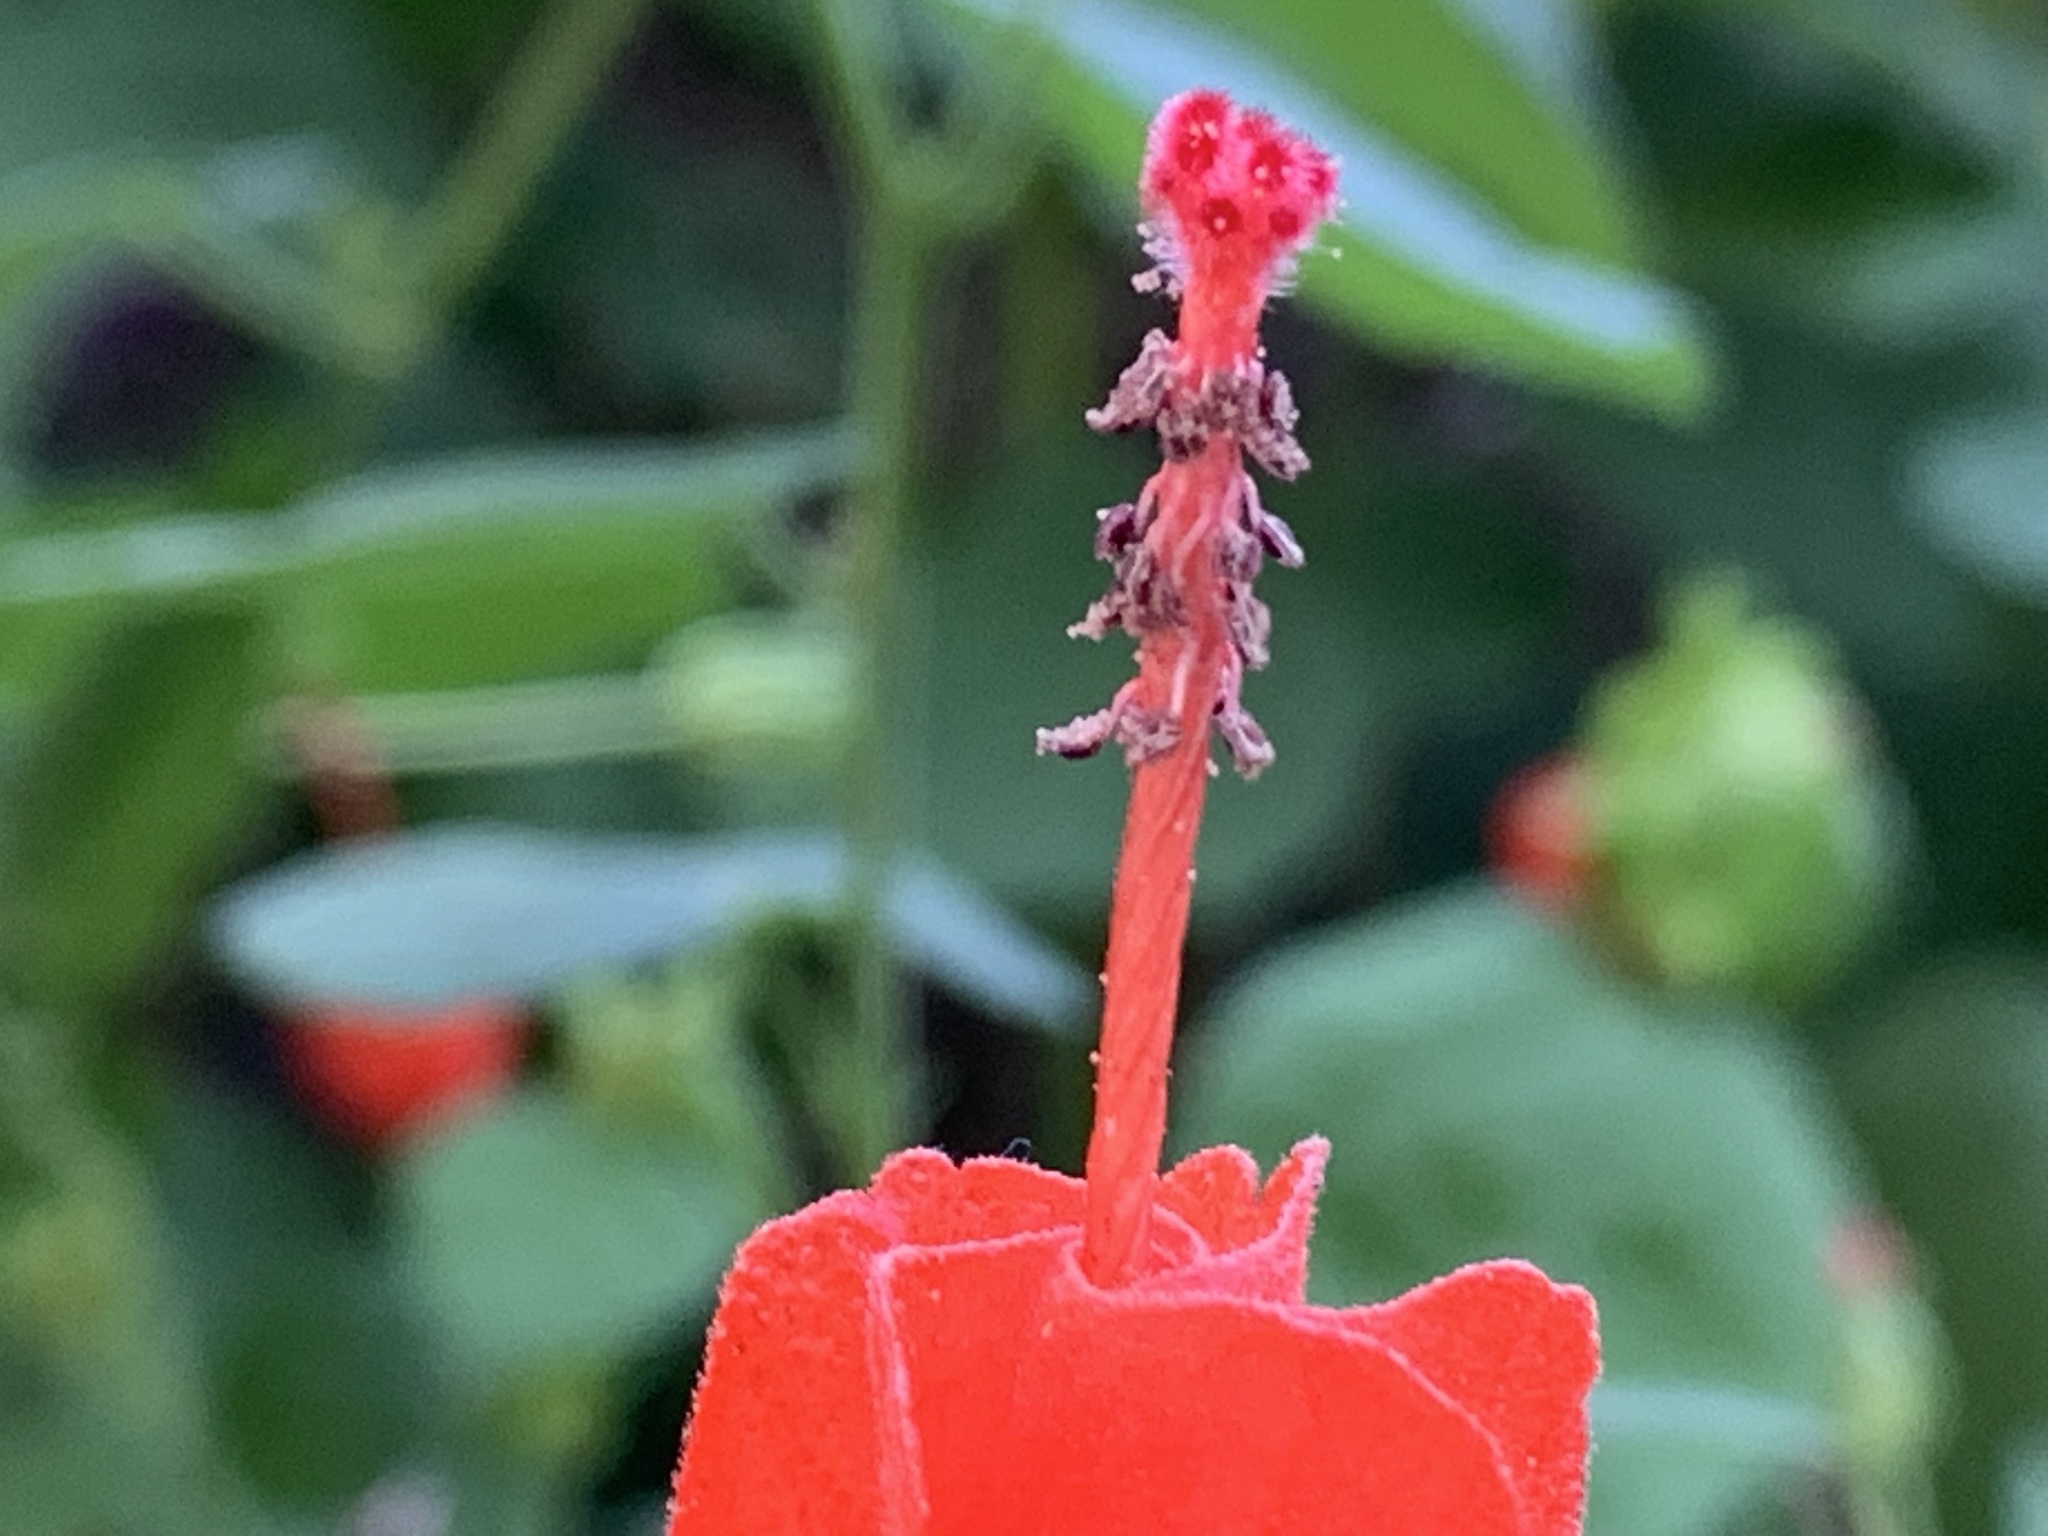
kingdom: Plantae
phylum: Tracheophyta
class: Magnoliopsida
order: Malvales
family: Malvaceae
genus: Malvaviscus
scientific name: Malvaviscus arboreus
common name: Wax mallow
